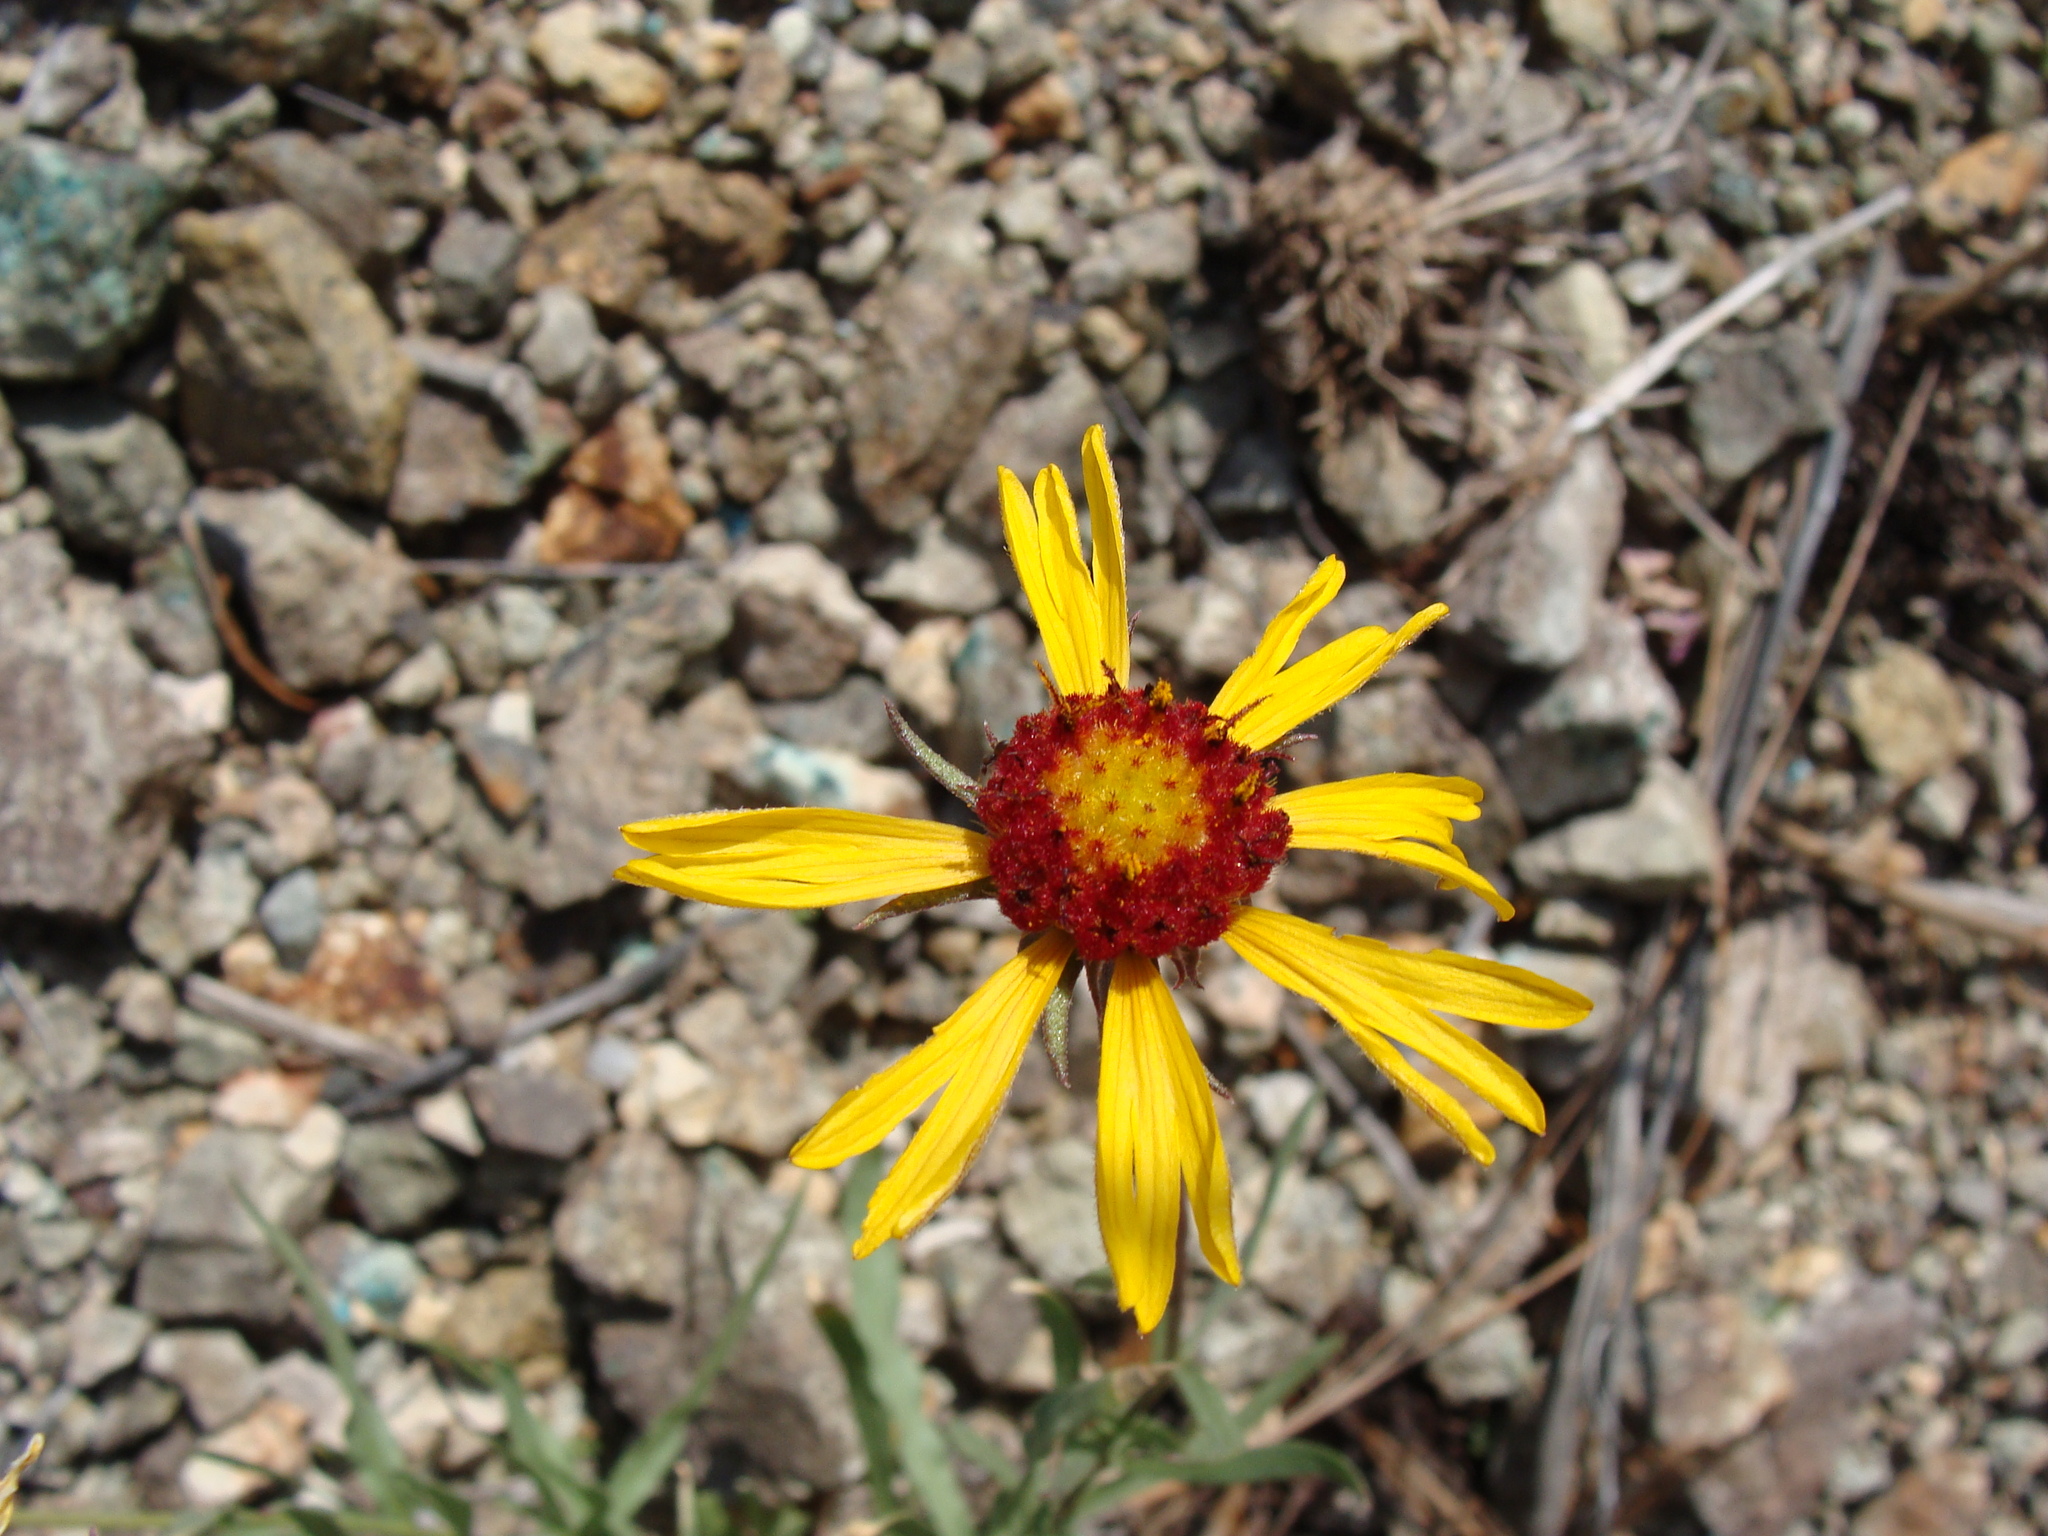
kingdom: Plantae
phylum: Tracheophyta
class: Magnoliopsida
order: Asterales
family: Asteraceae
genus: Gaillardia
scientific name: Gaillardia pinnatifida
